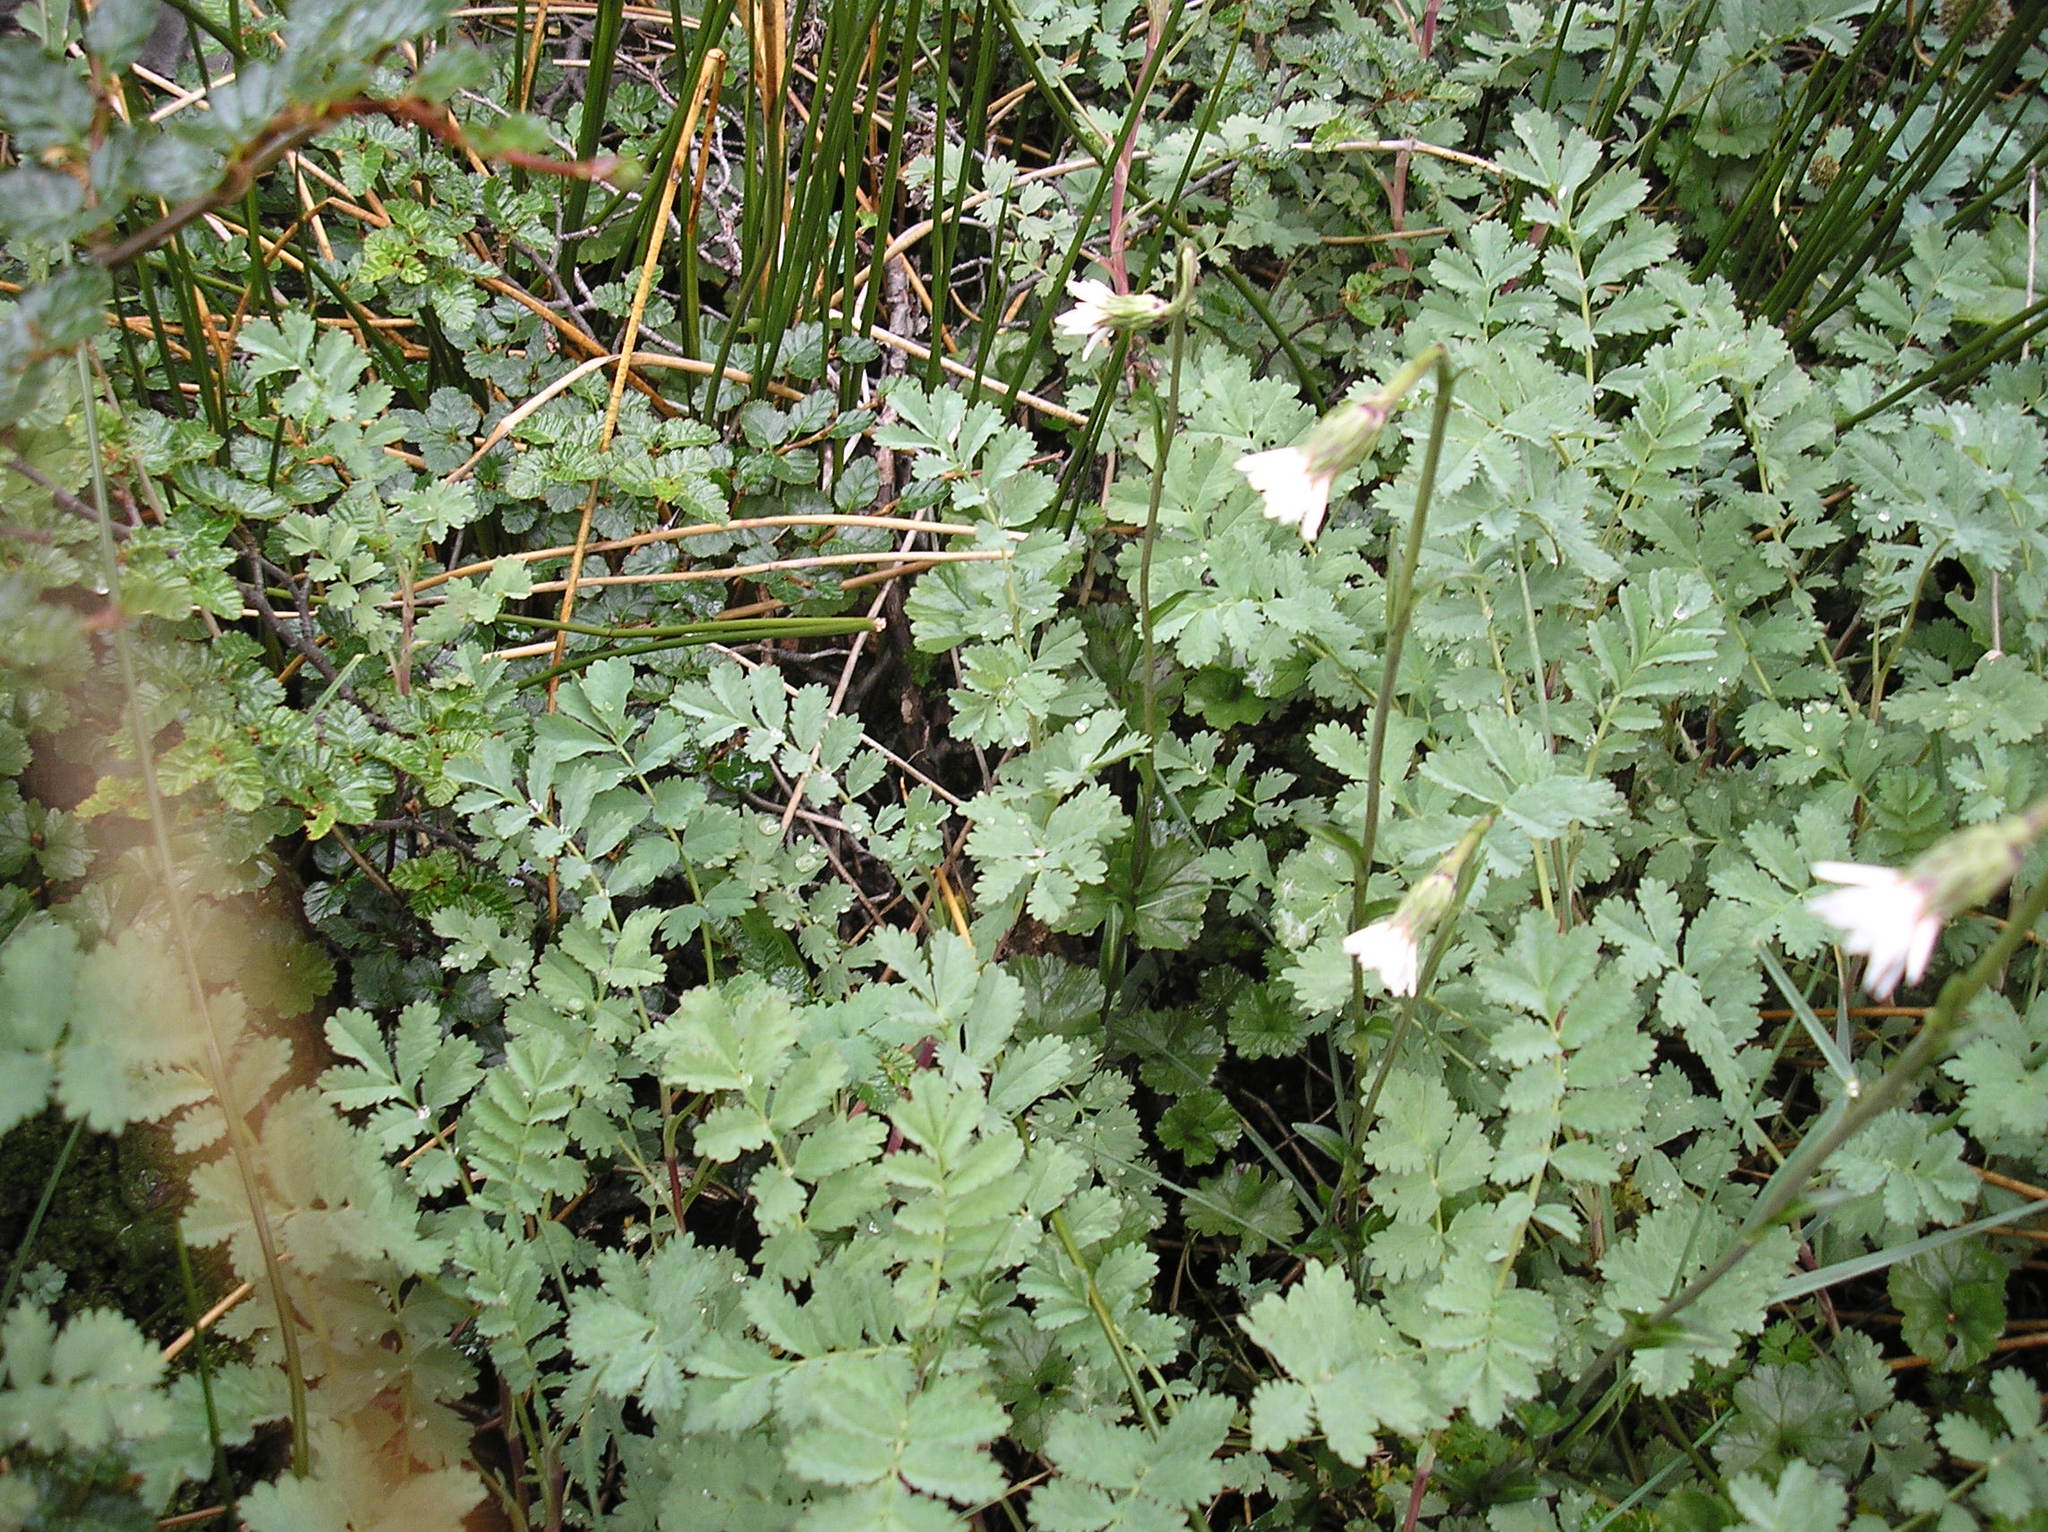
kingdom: Plantae
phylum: Tracheophyta
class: Magnoliopsida
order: Asterales
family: Asteraceae
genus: Perezia
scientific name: Perezia lactucoides
